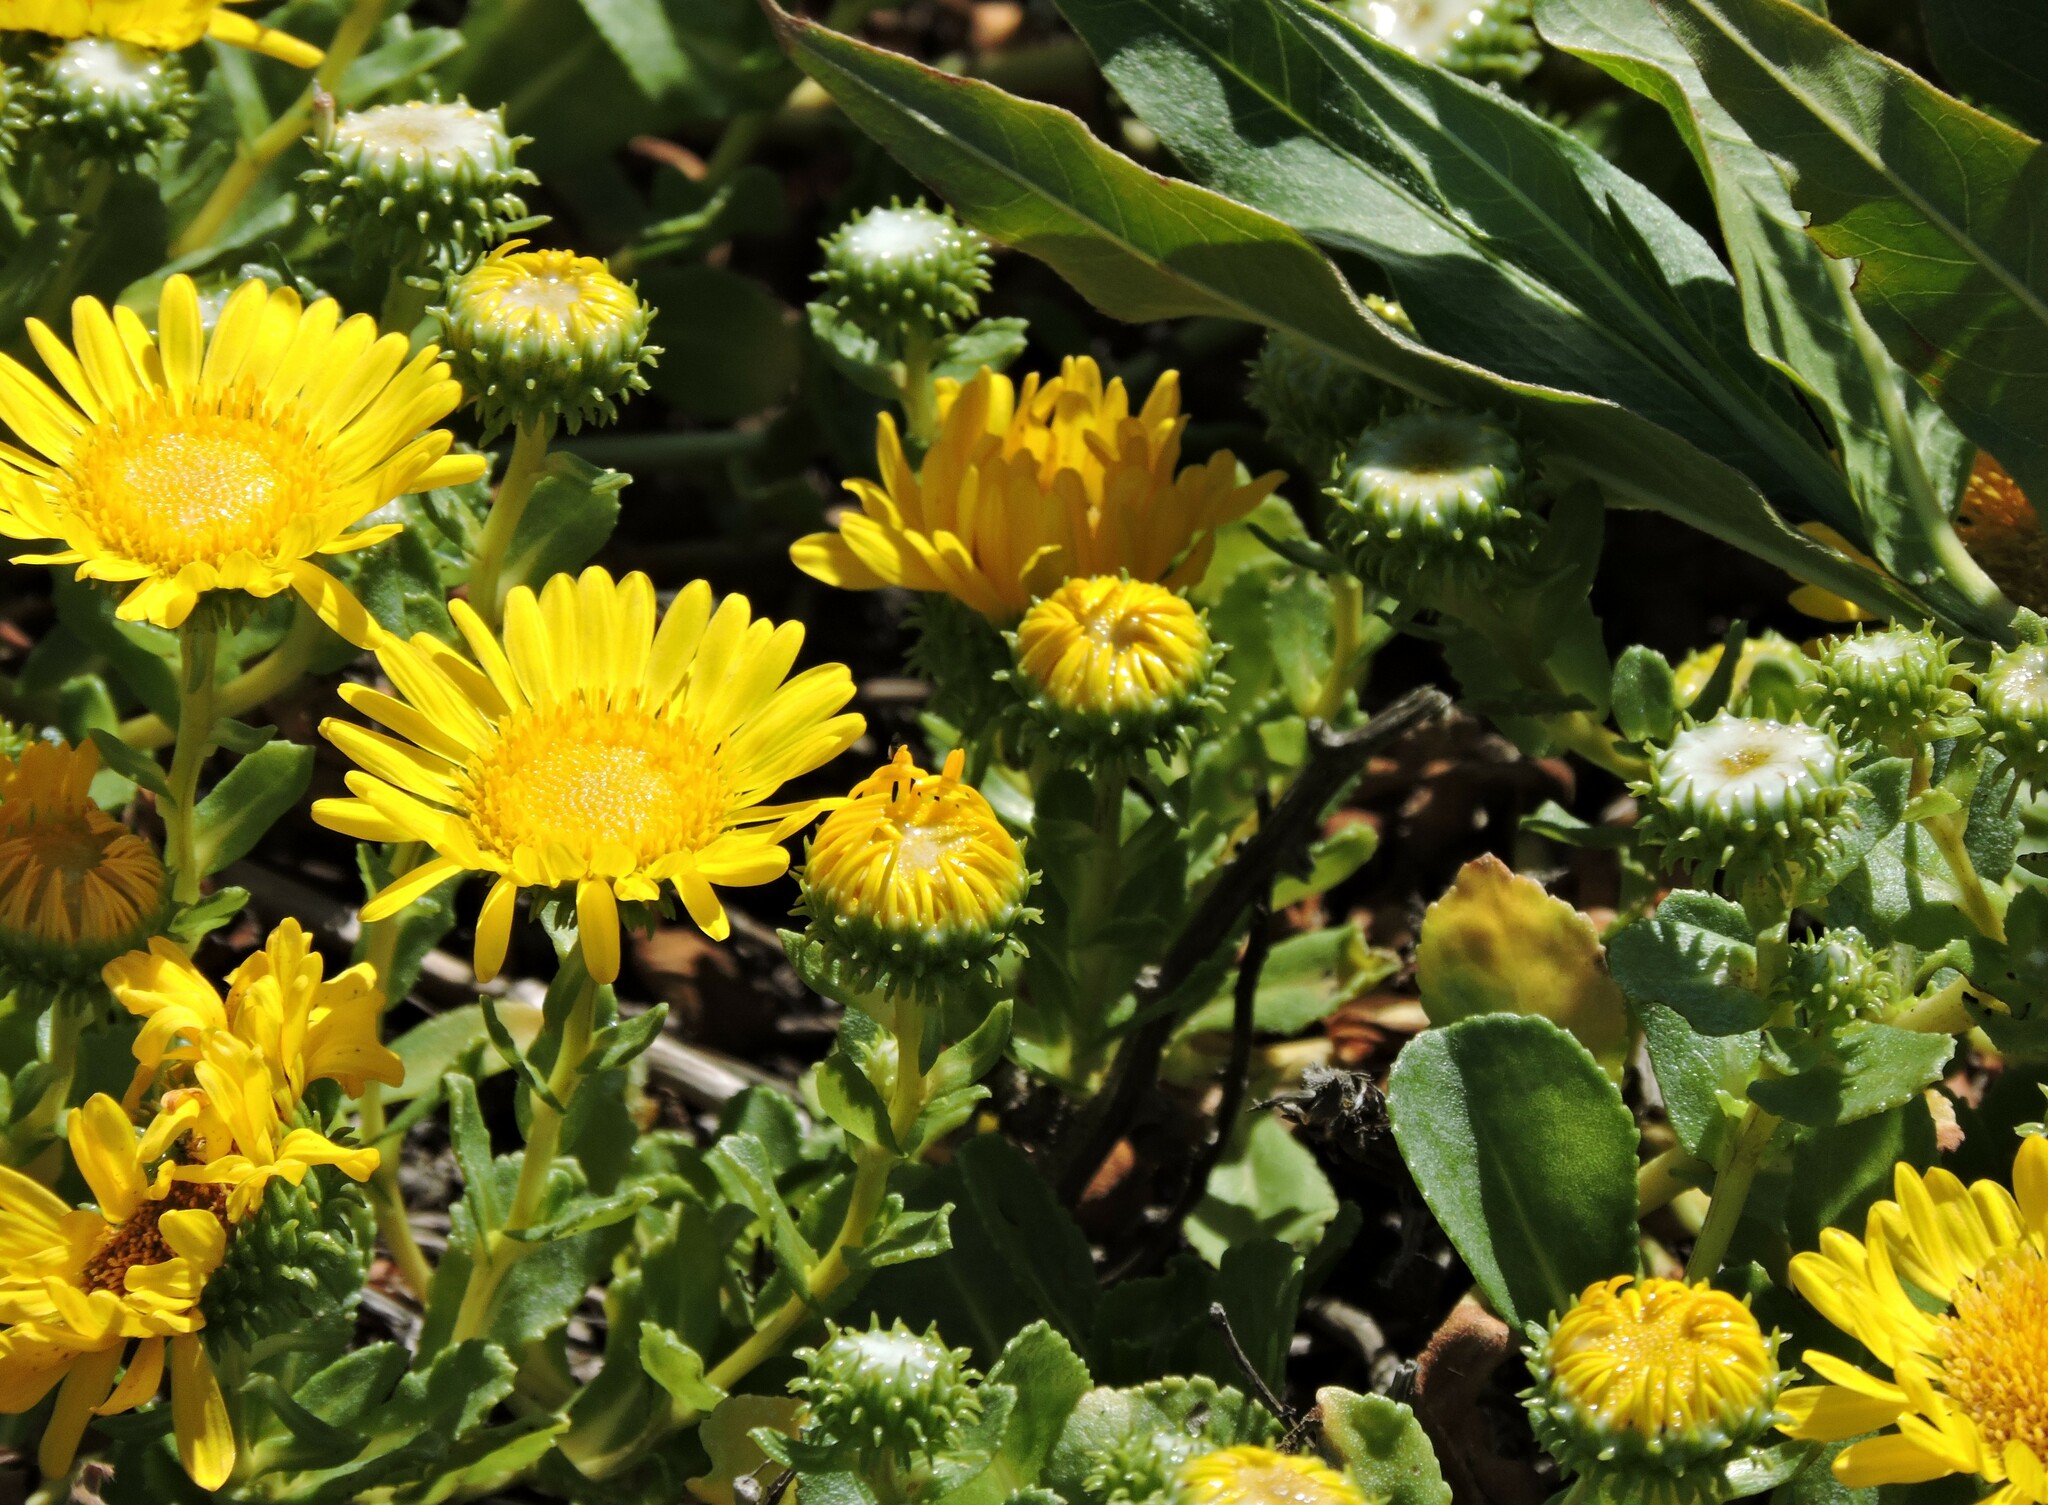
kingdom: Plantae
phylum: Tracheophyta
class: Magnoliopsida
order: Asterales
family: Asteraceae
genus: Grindelia
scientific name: Grindelia hirsutula
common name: Hairy gumweed
